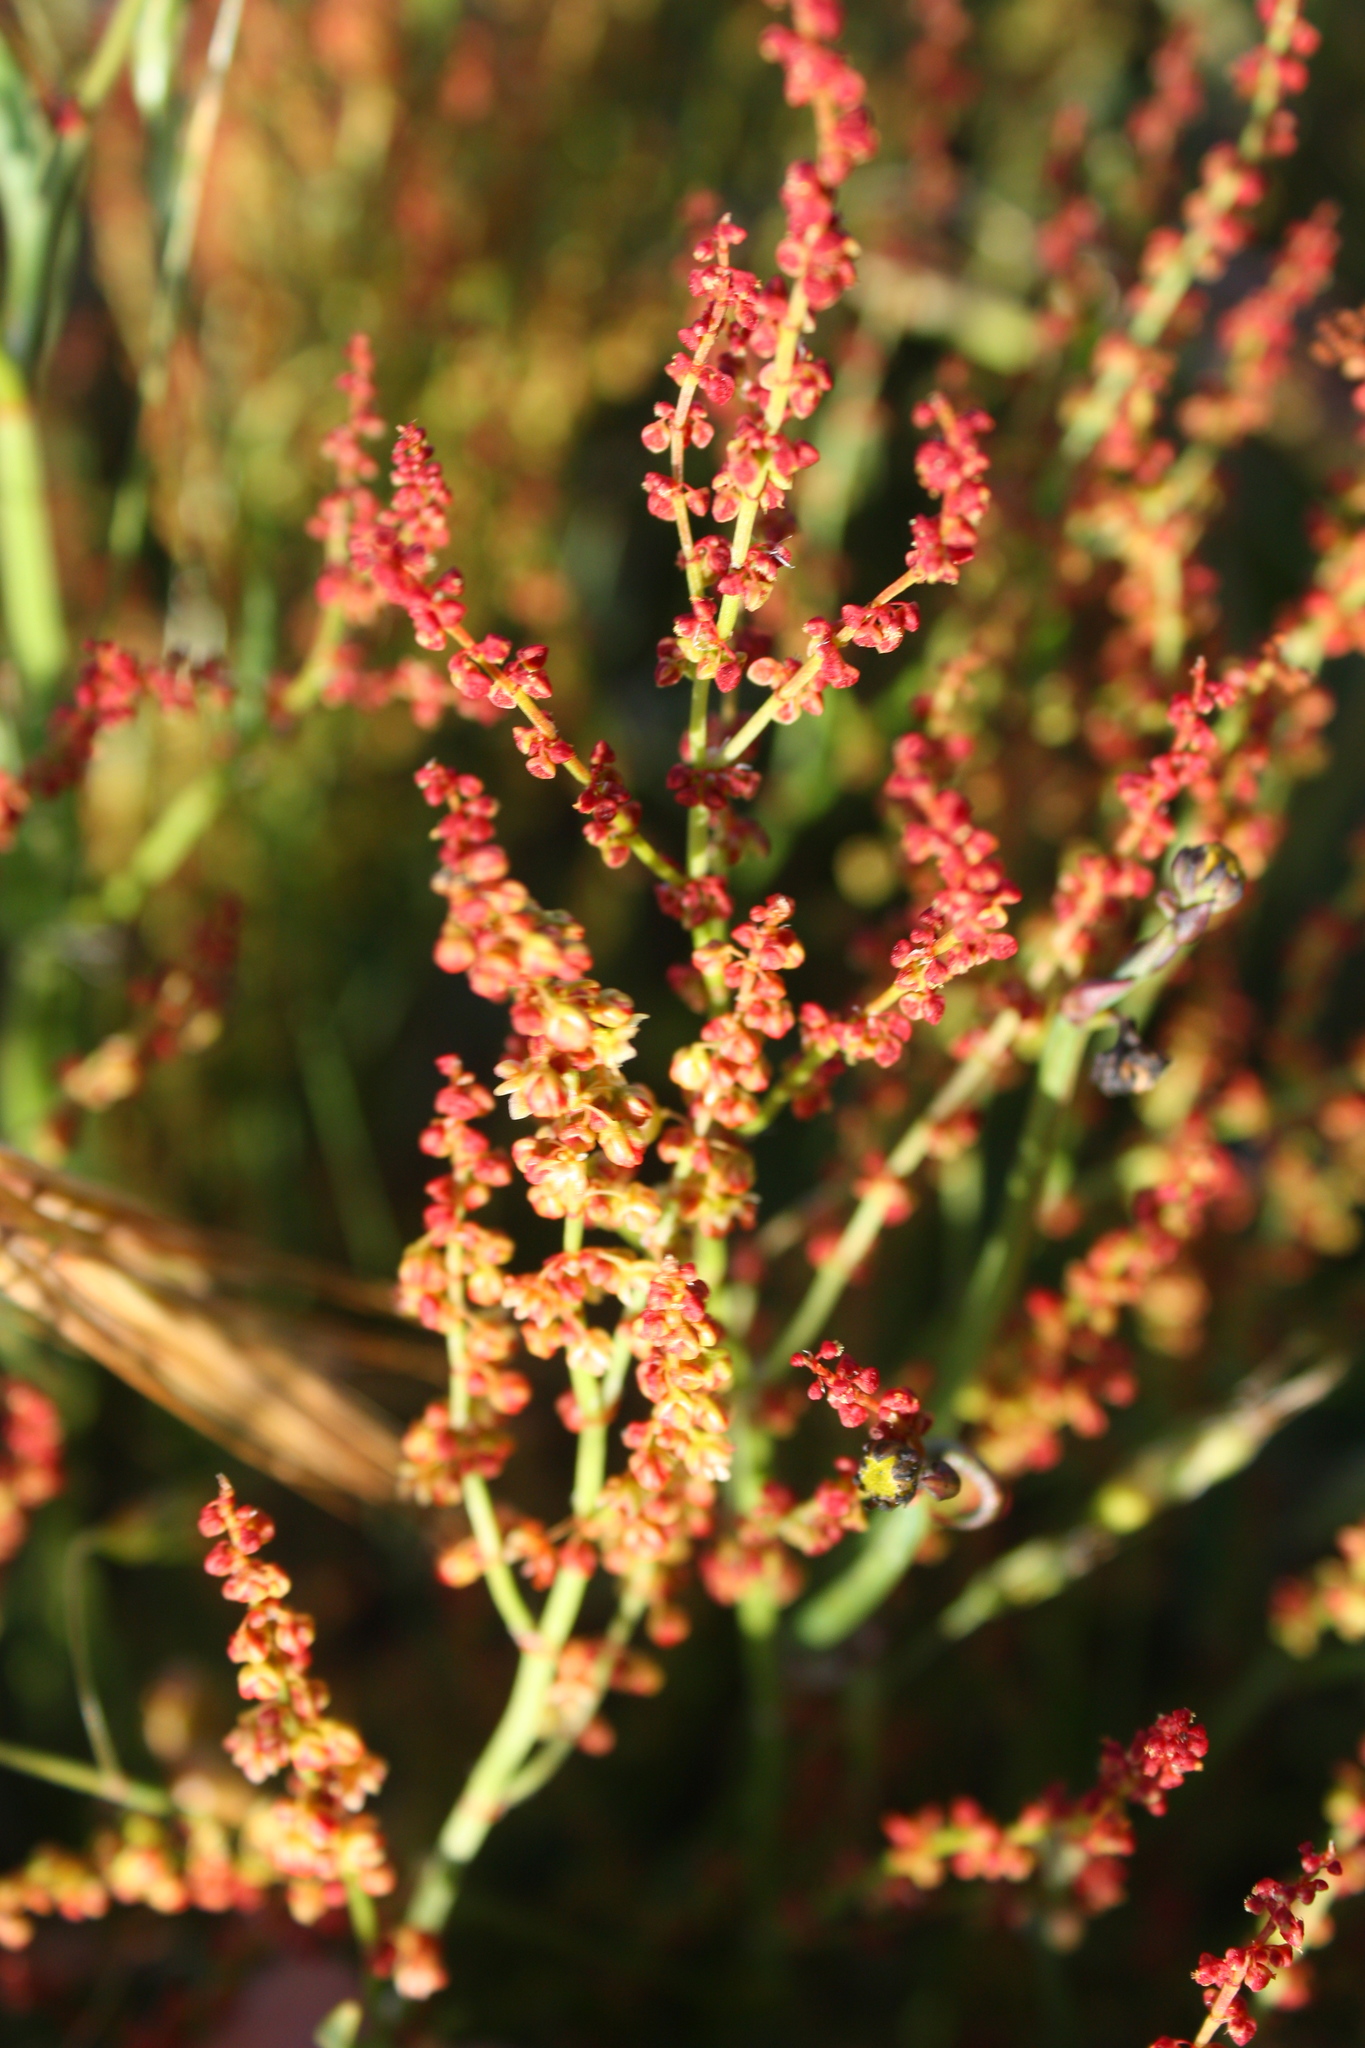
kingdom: Plantae
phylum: Tracheophyta
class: Magnoliopsida
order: Caryophyllales
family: Polygonaceae
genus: Rumex
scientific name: Rumex acetosella
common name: Common sheep sorrel
